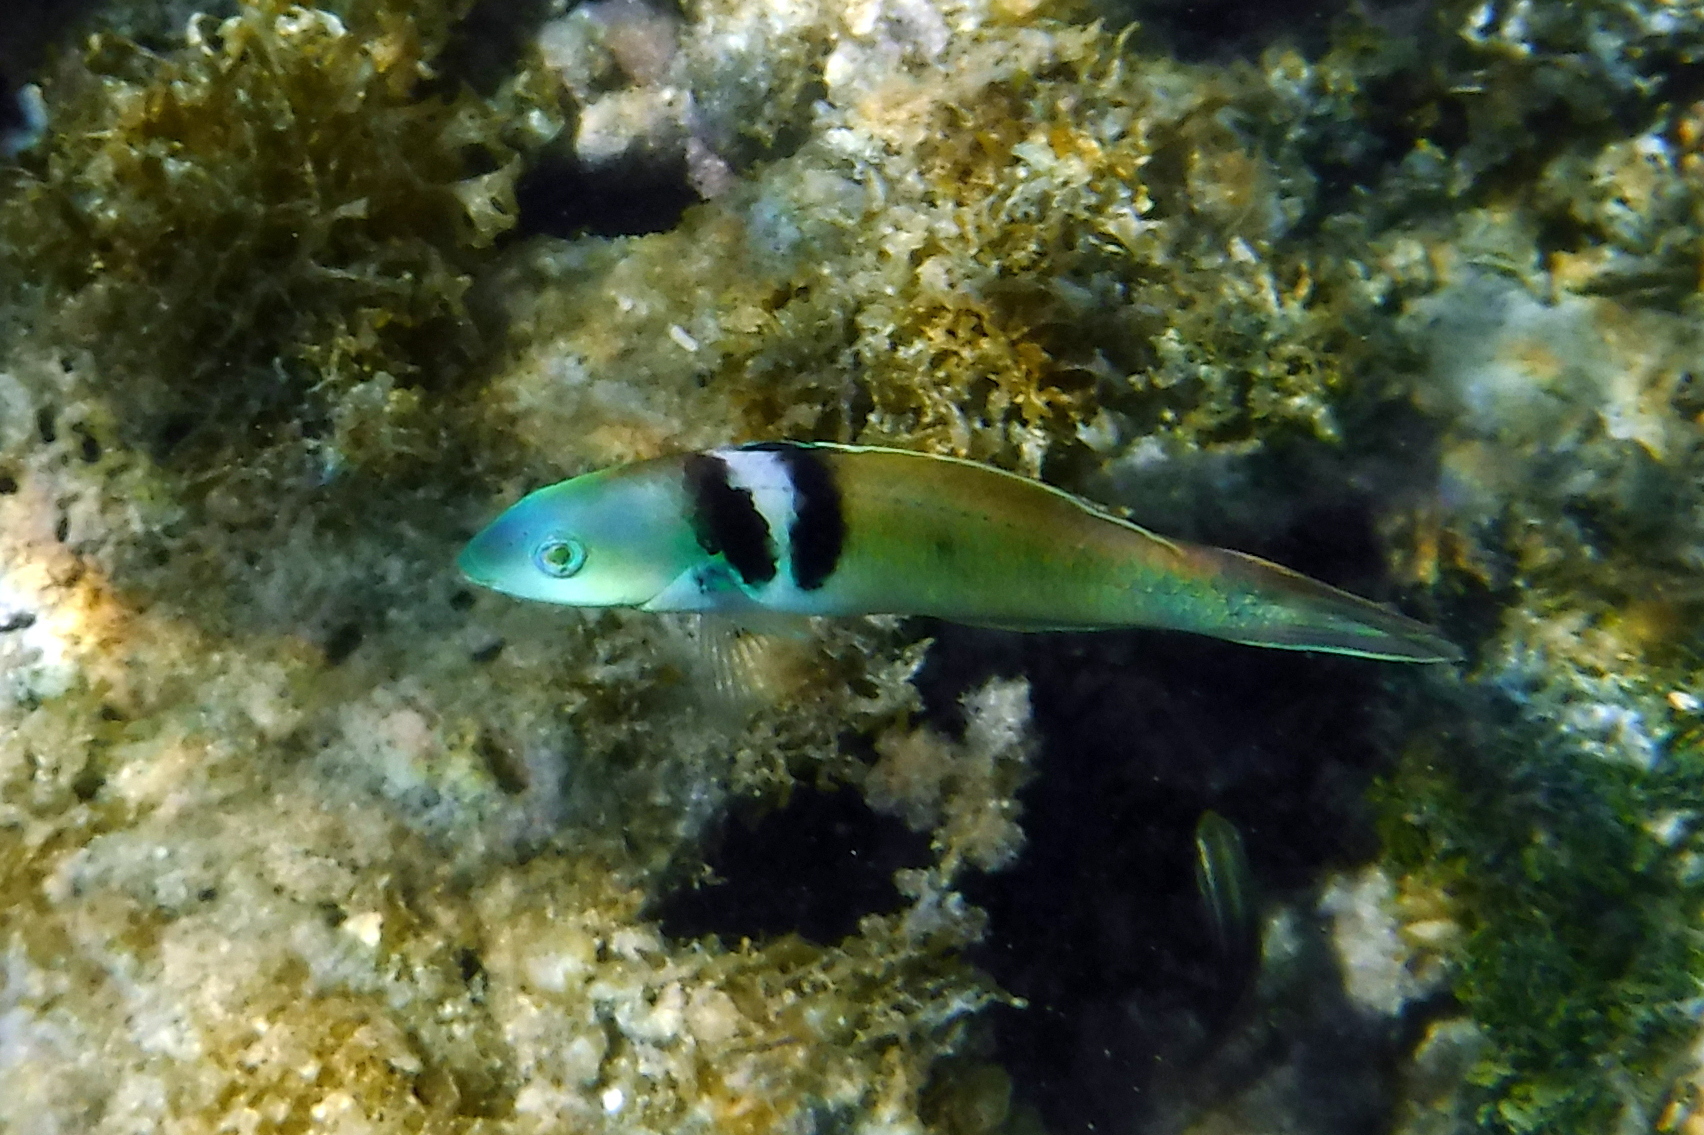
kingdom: Animalia
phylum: Chordata
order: Perciformes
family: Labridae
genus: Thalassoma
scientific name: Thalassoma bifasciatum
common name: Bluehead wrasse
